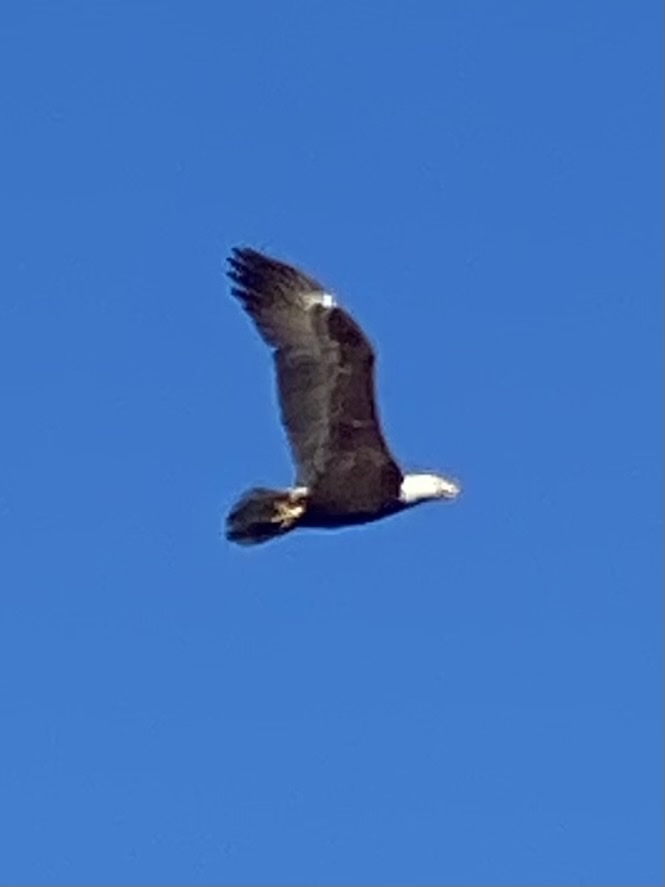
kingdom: Animalia
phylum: Chordata
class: Aves
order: Accipitriformes
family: Accipitridae
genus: Haliaeetus
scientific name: Haliaeetus leucocephalus
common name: Bald eagle
